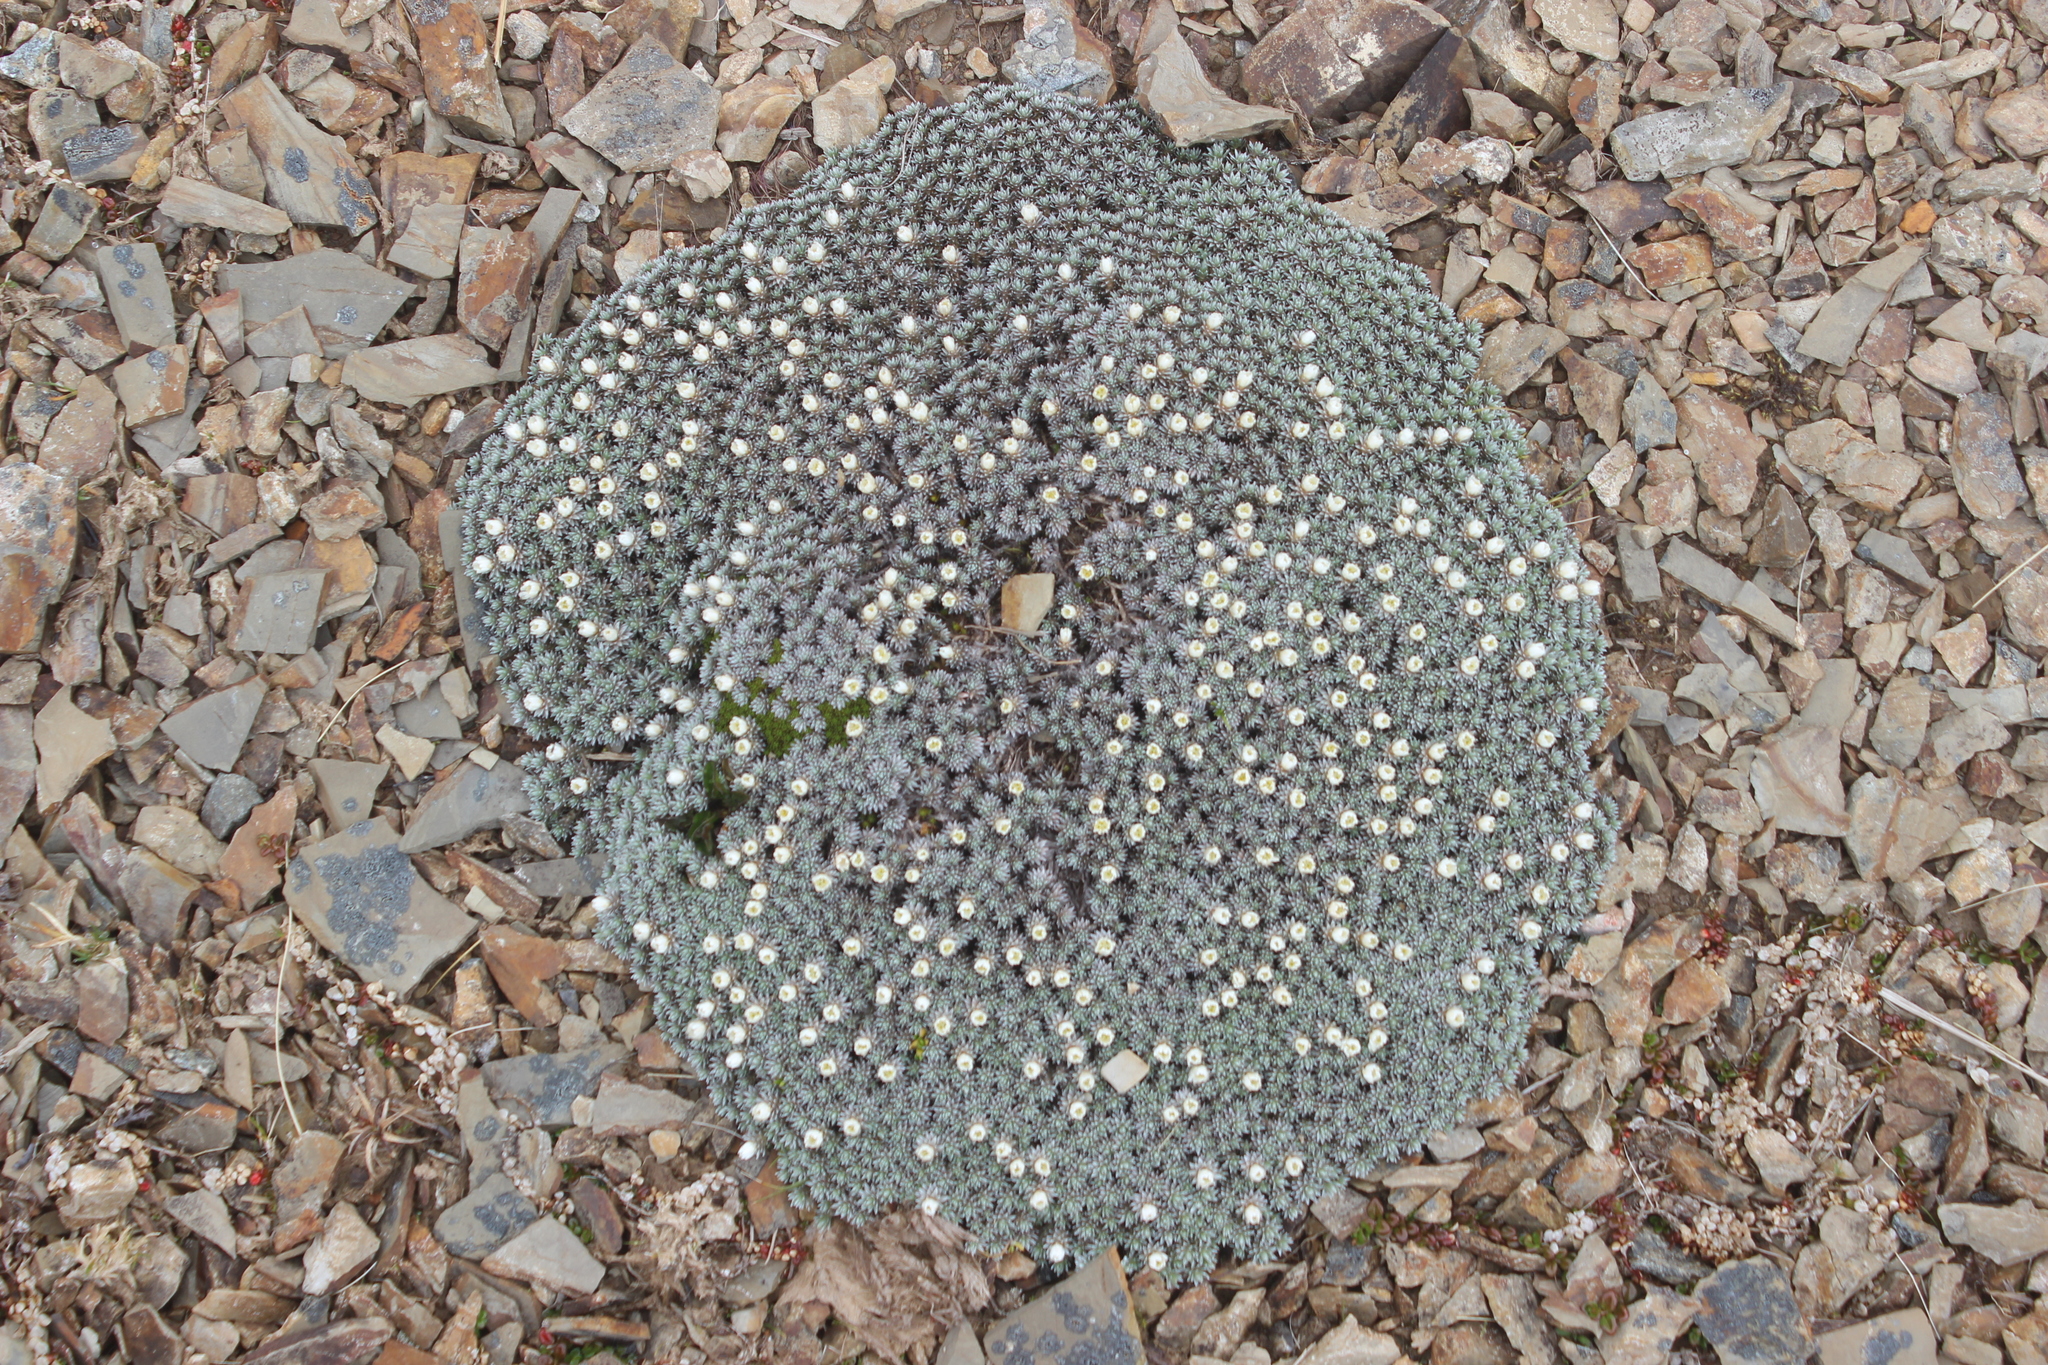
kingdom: Plantae
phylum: Tracheophyta
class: Magnoliopsida
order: Asterales
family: Asteraceae
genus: Raoulia
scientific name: Raoulia grandiflora
